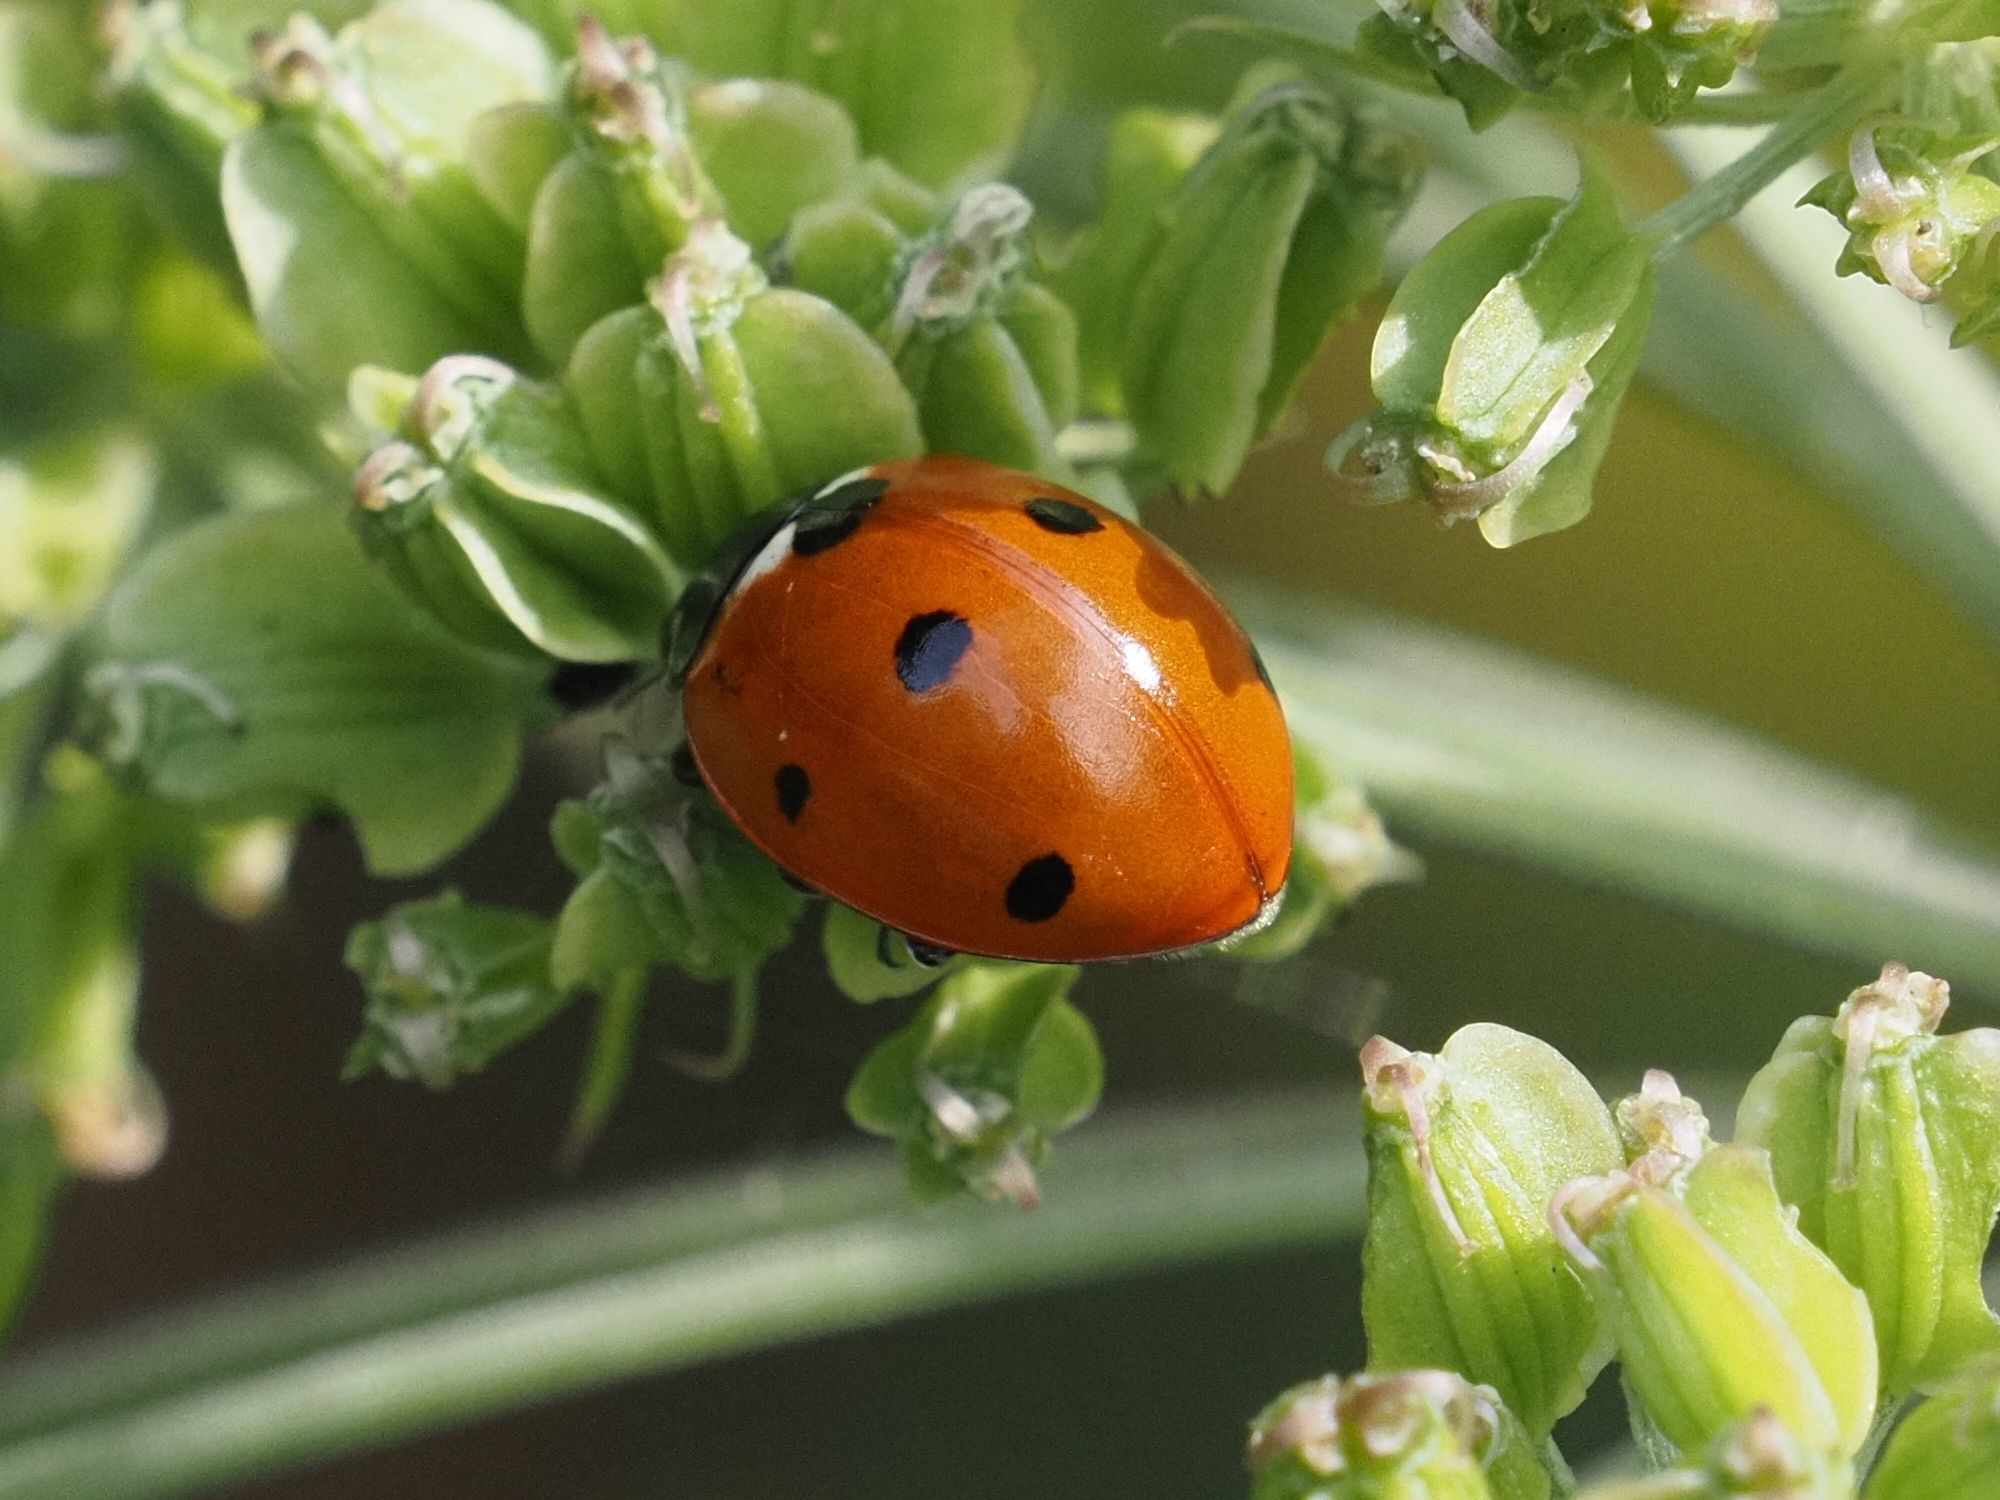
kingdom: Animalia
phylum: Arthropoda
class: Insecta
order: Coleoptera
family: Coccinellidae
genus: Coccinella
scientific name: Coccinella septempunctata
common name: Sevenspotted lady beetle
